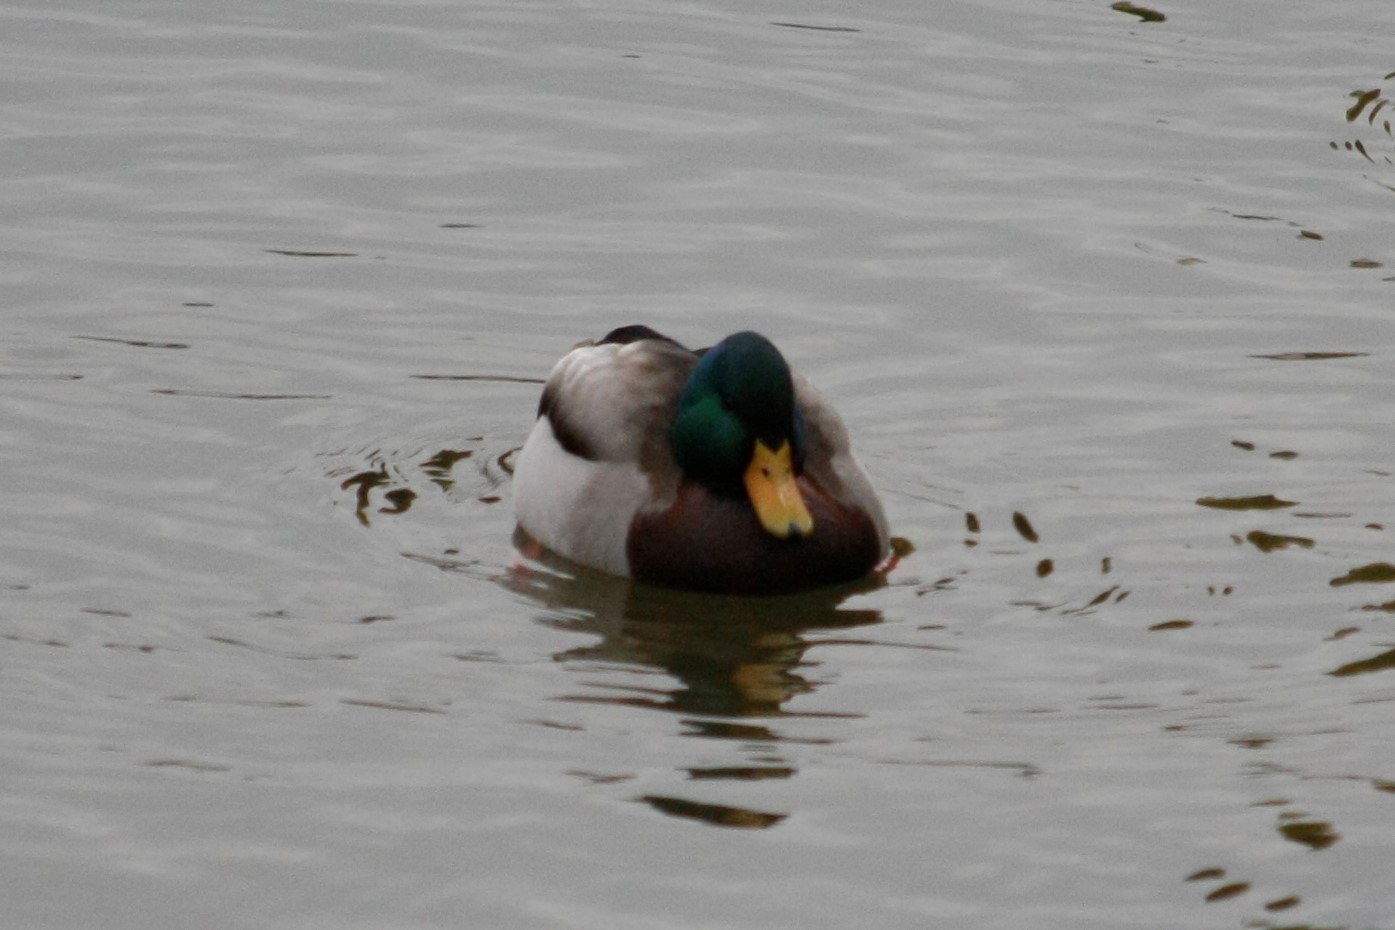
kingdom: Animalia
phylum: Chordata
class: Aves
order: Anseriformes
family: Anatidae
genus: Anas
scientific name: Anas platyrhynchos
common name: Mallard
